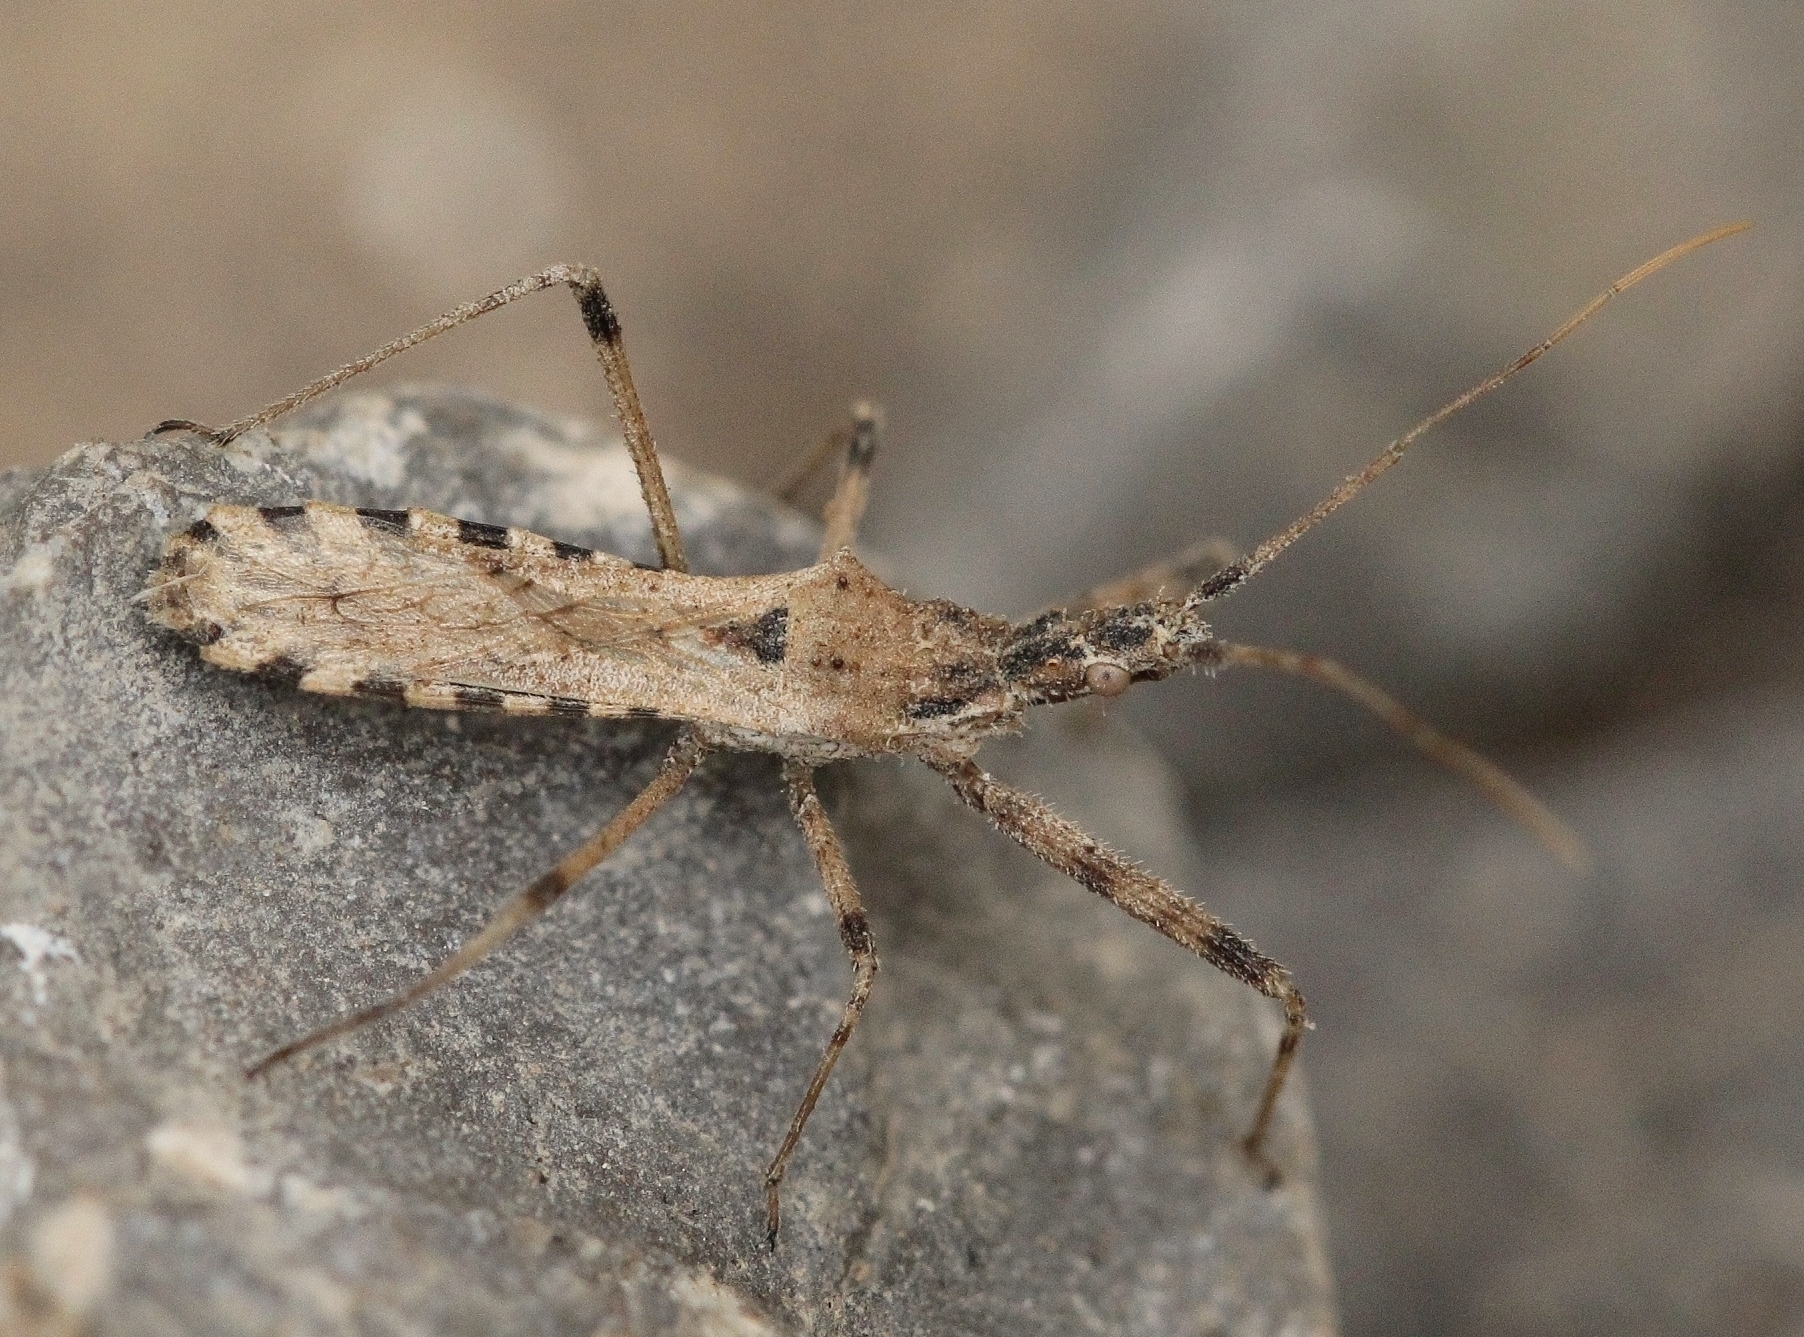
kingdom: Animalia
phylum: Arthropoda
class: Insecta
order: Hemiptera
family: Reduviidae
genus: Vachiria
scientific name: Vachiria deserta
